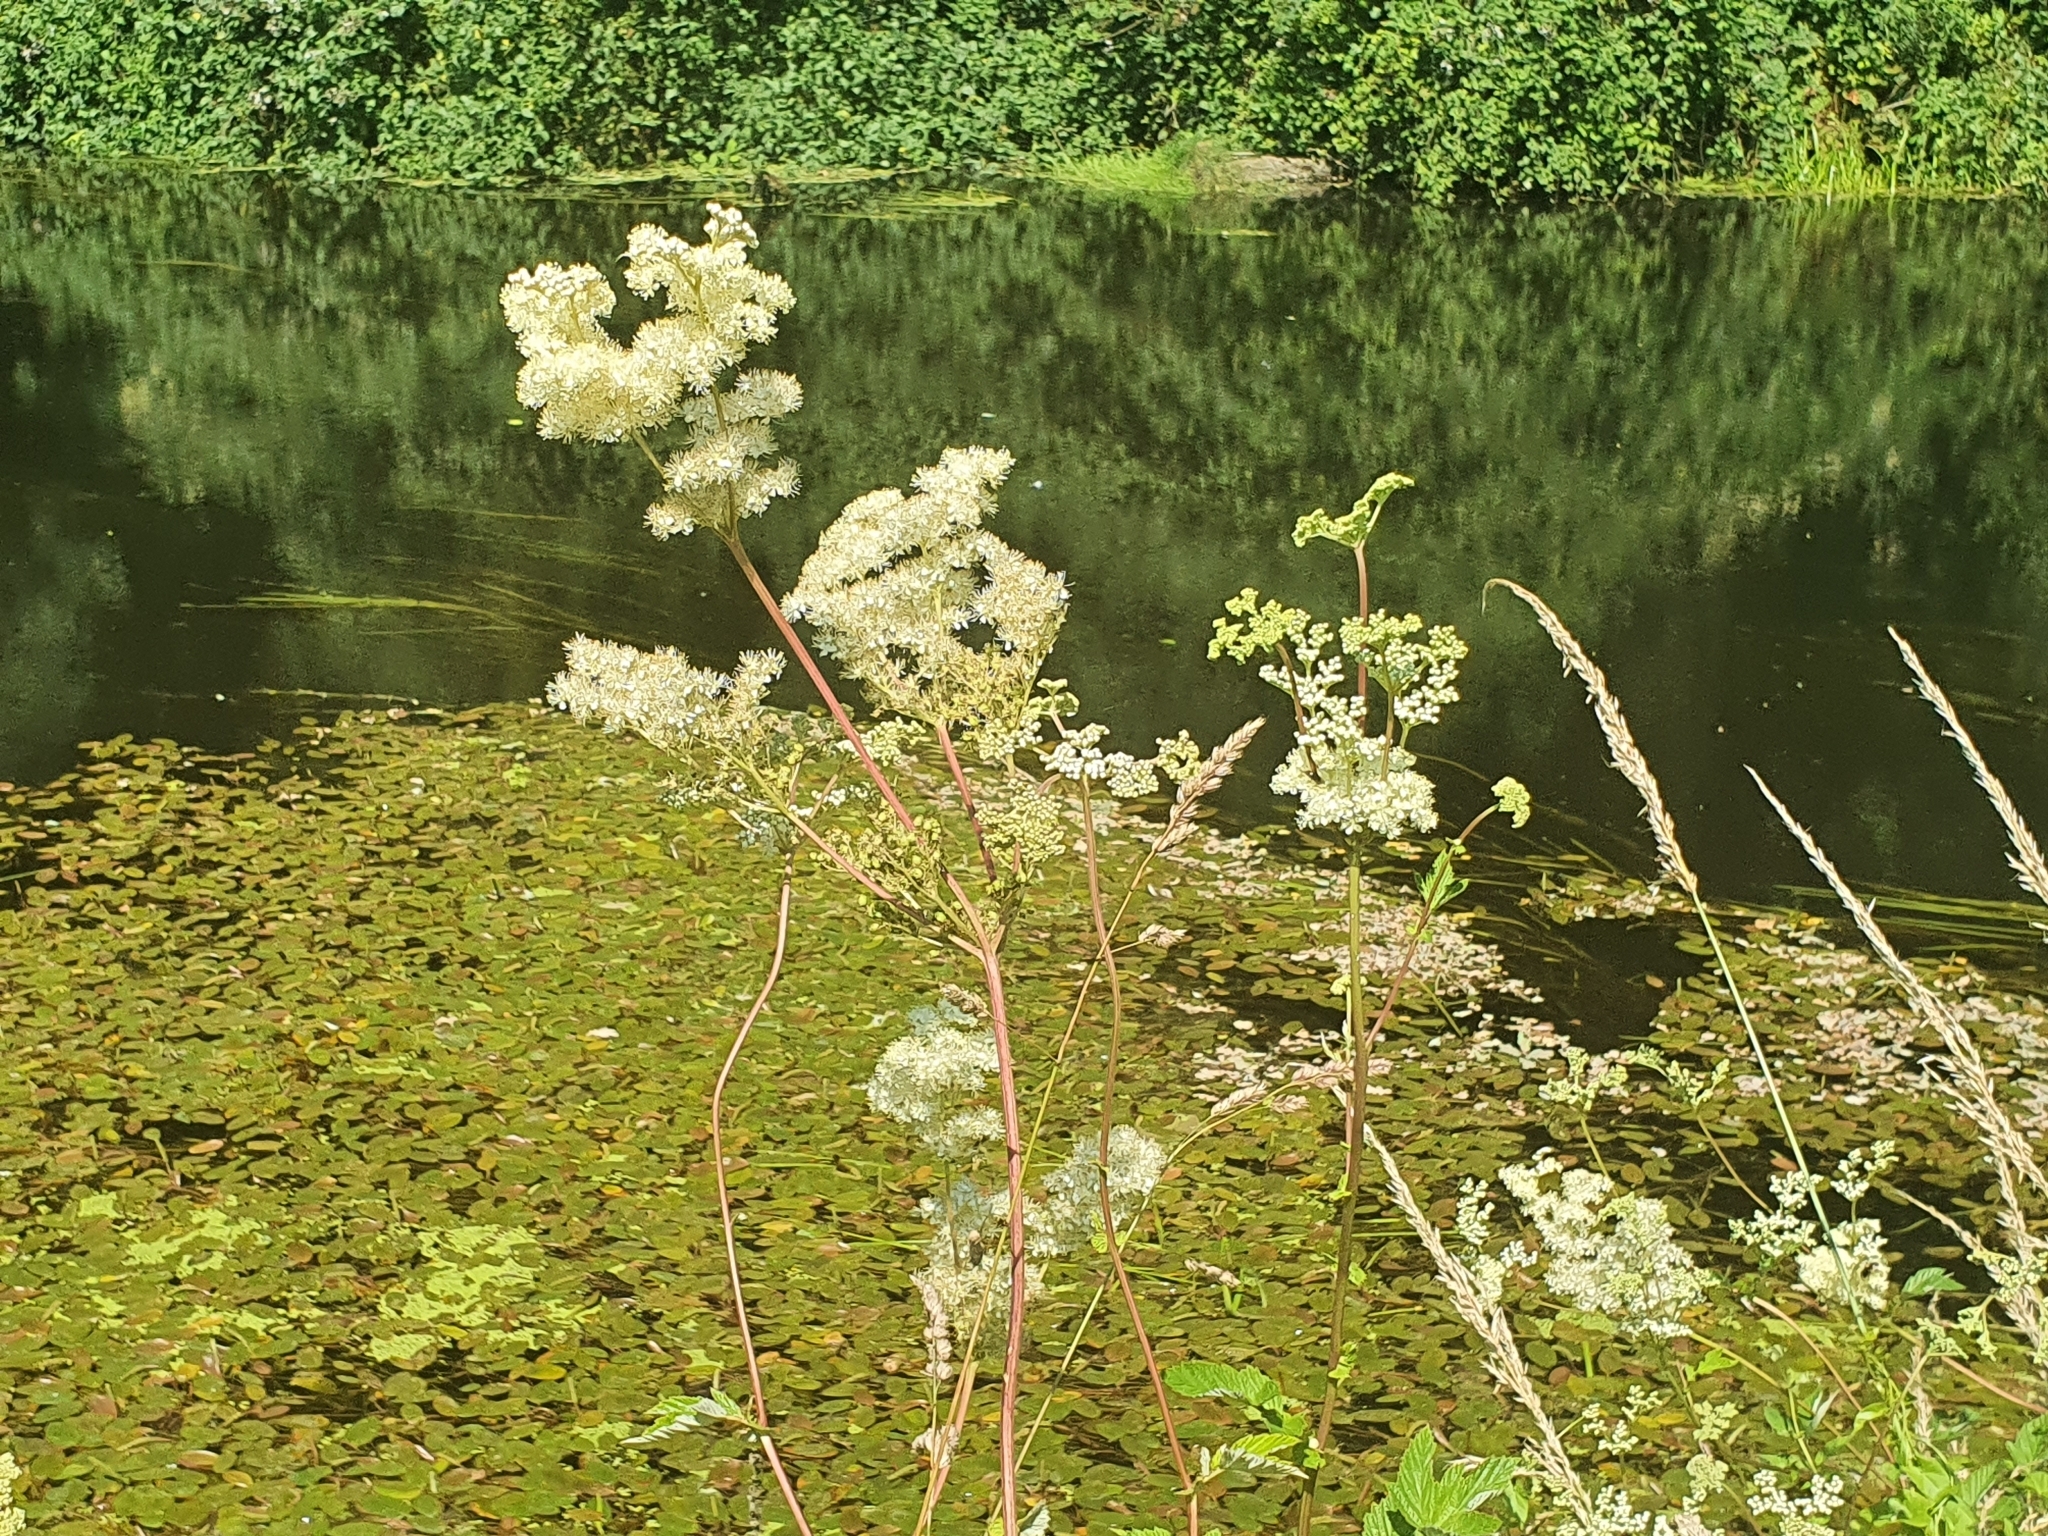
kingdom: Plantae
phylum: Tracheophyta
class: Magnoliopsida
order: Rosales
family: Rosaceae
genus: Filipendula
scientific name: Filipendula ulmaria
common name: Meadowsweet
